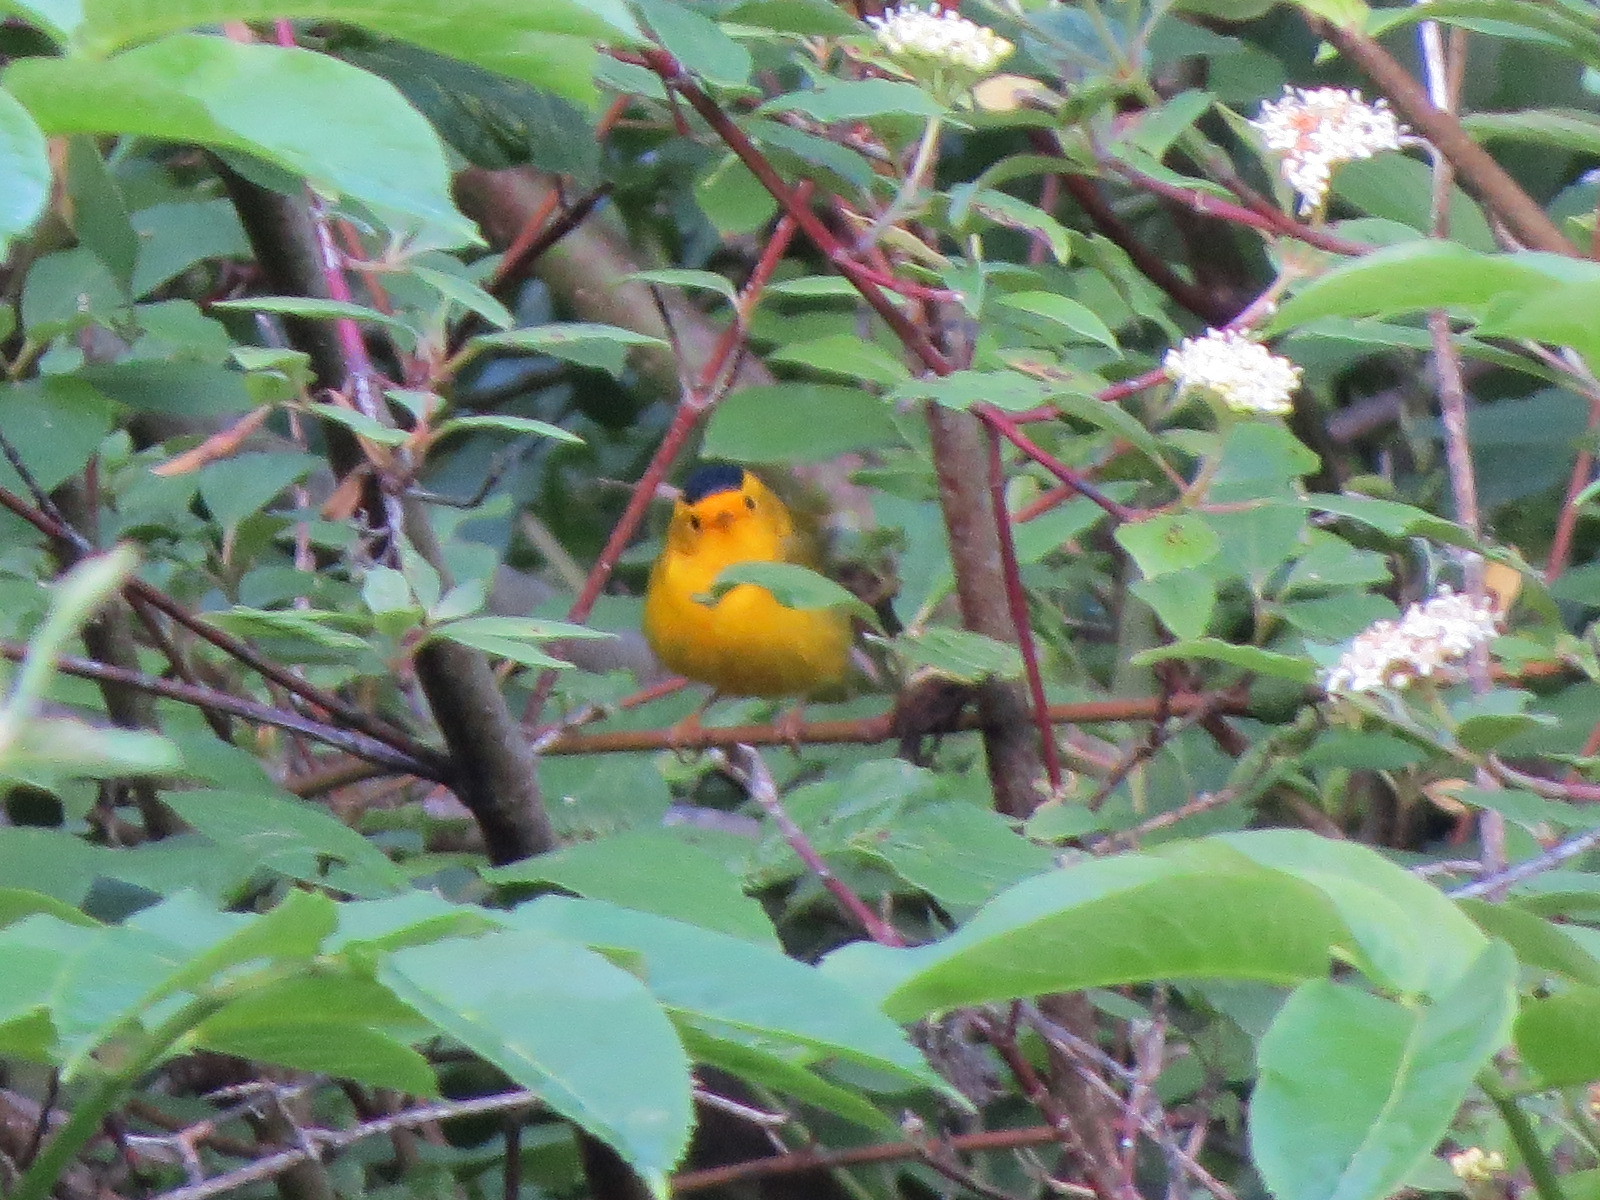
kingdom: Animalia
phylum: Chordata
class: Aves
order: Passeriformes
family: Parulidae
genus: Cardellina
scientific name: Cardellina pusilla
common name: Wilson's warbler
